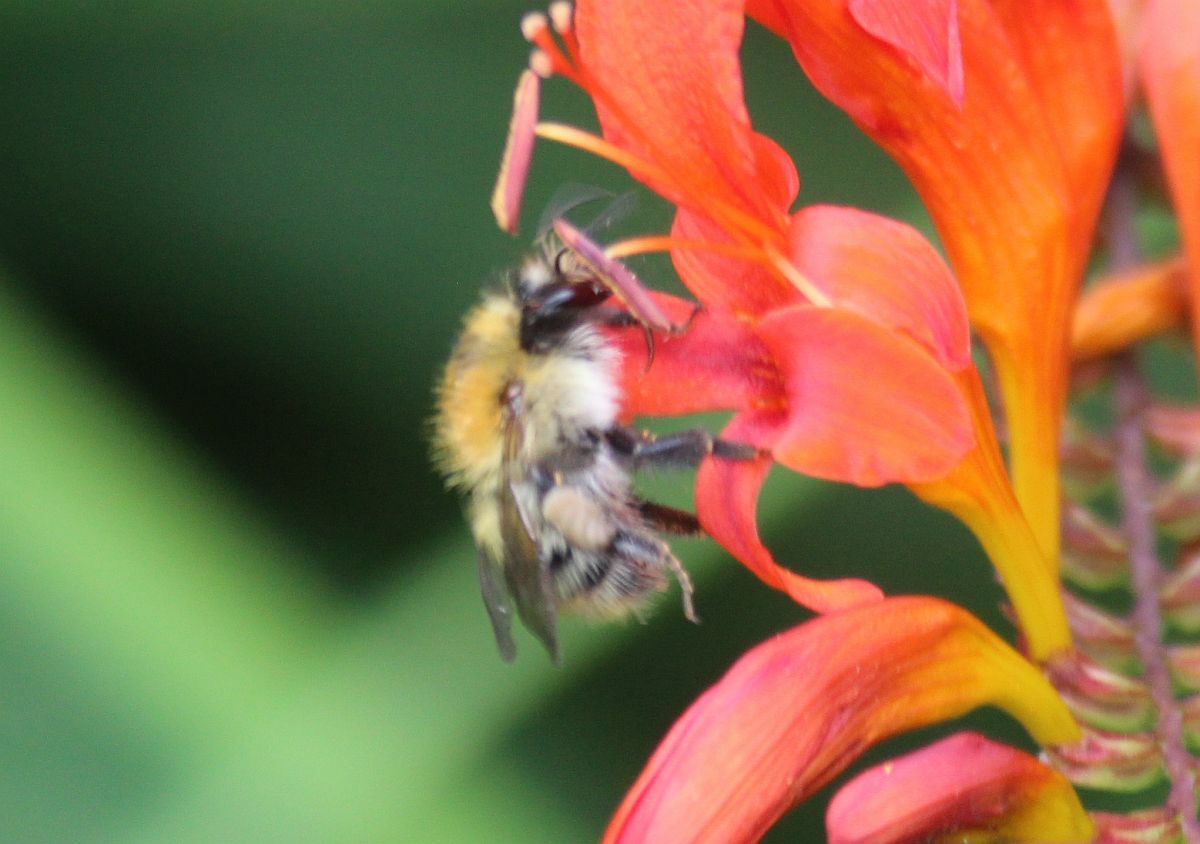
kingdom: Animalia
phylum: Arthropoda
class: Insecta
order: Hymenoptera
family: Apidae
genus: Bombus
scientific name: Bombus pascuorum
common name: Common carder bee
